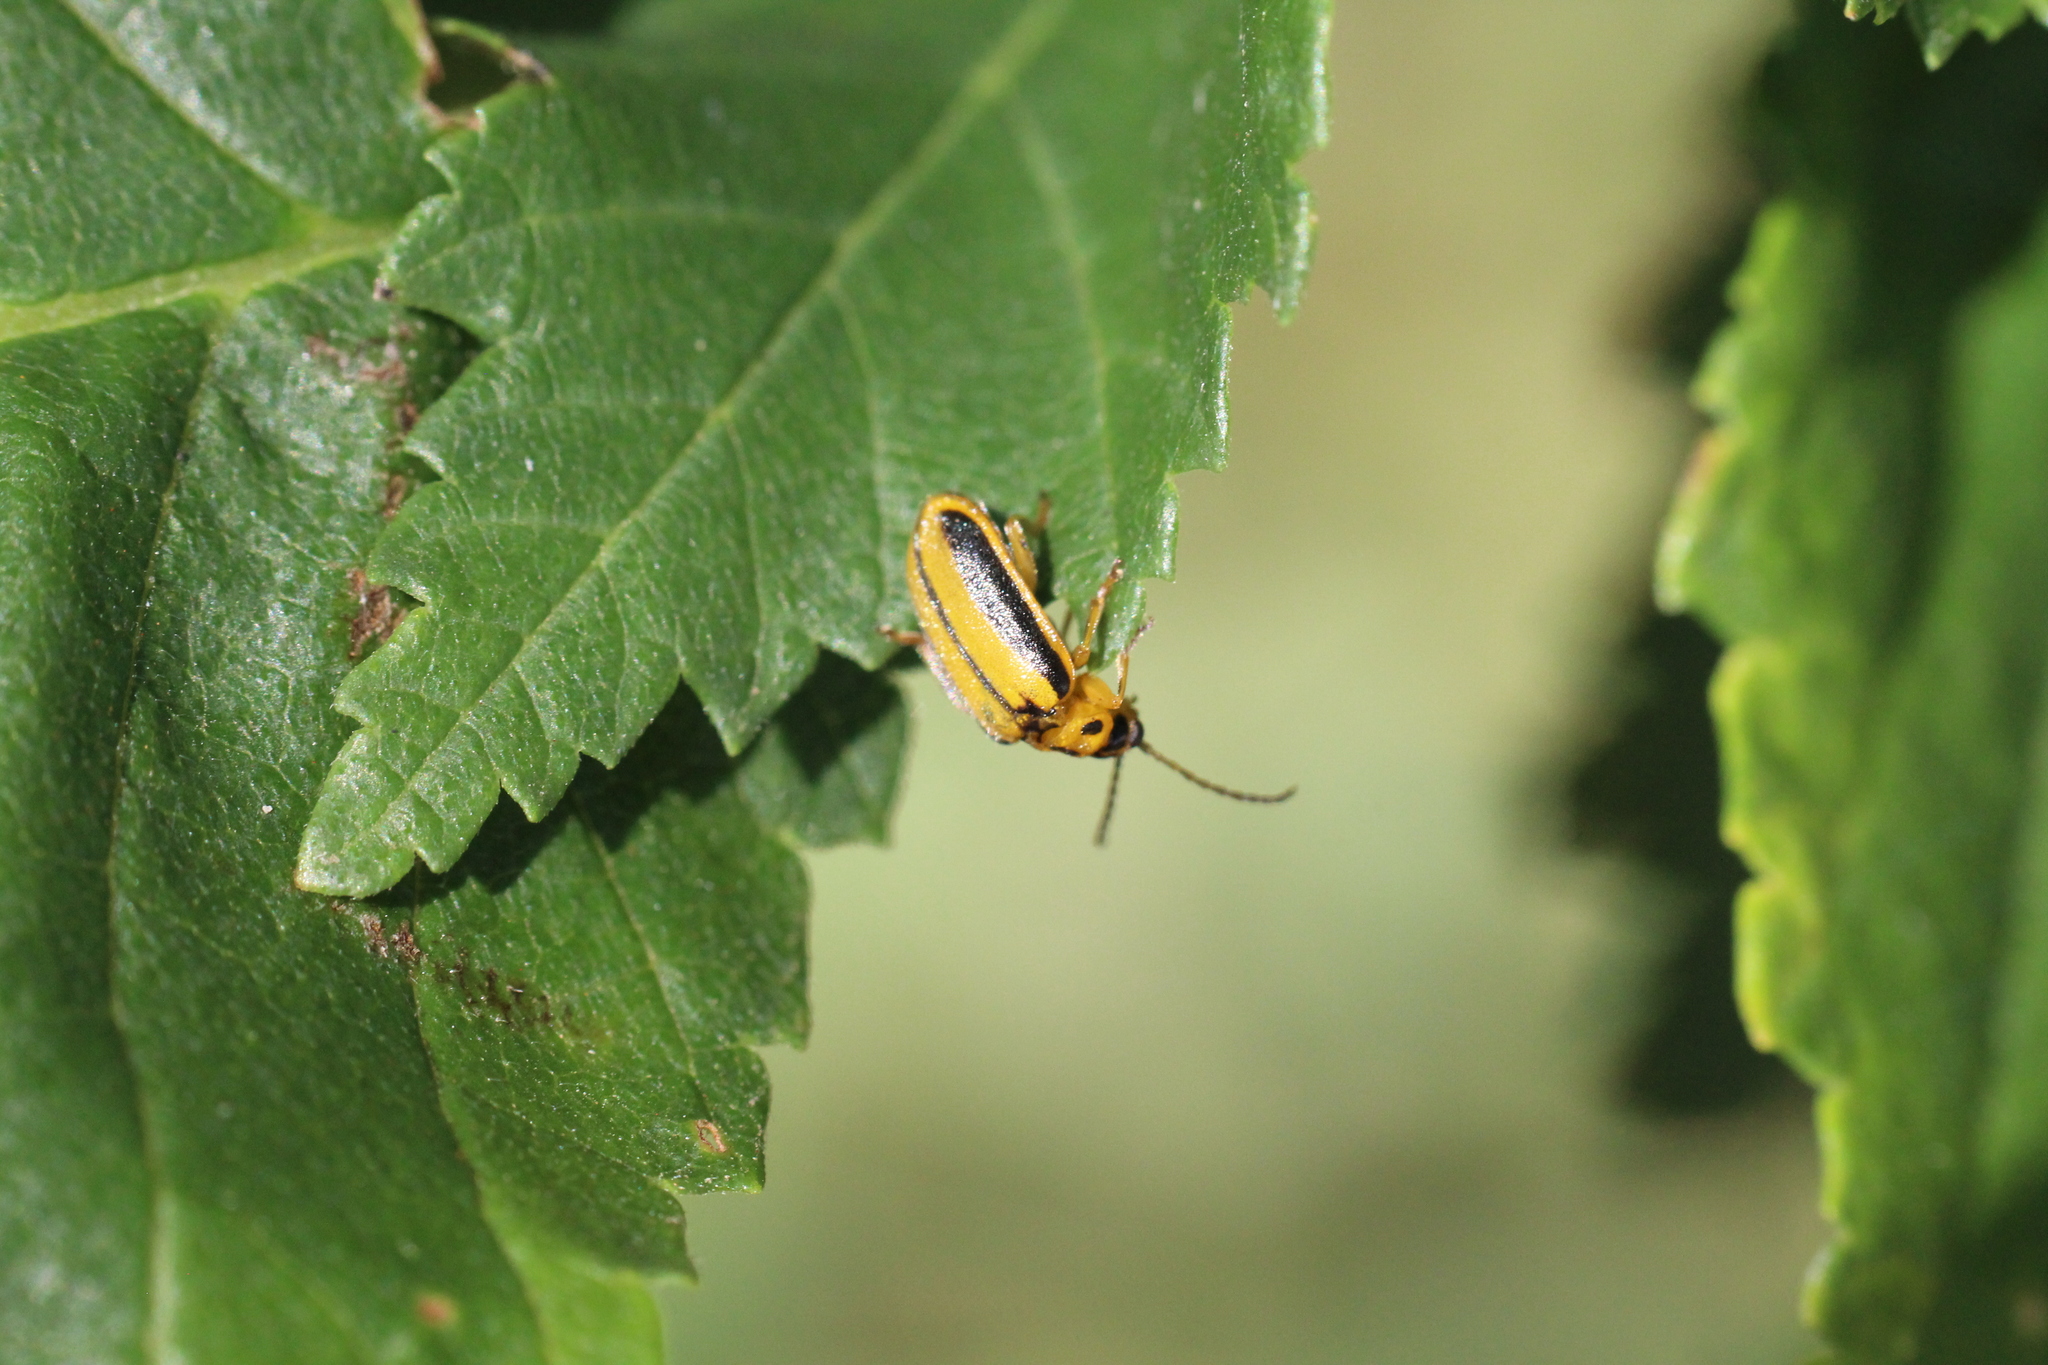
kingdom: Animalia
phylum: Arthropoda
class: Insecta
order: Coleoptera
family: Chrysomelidae
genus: Xanthogaleruca
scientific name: Xanthogaleruca luteola
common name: Elm leaf beetle
